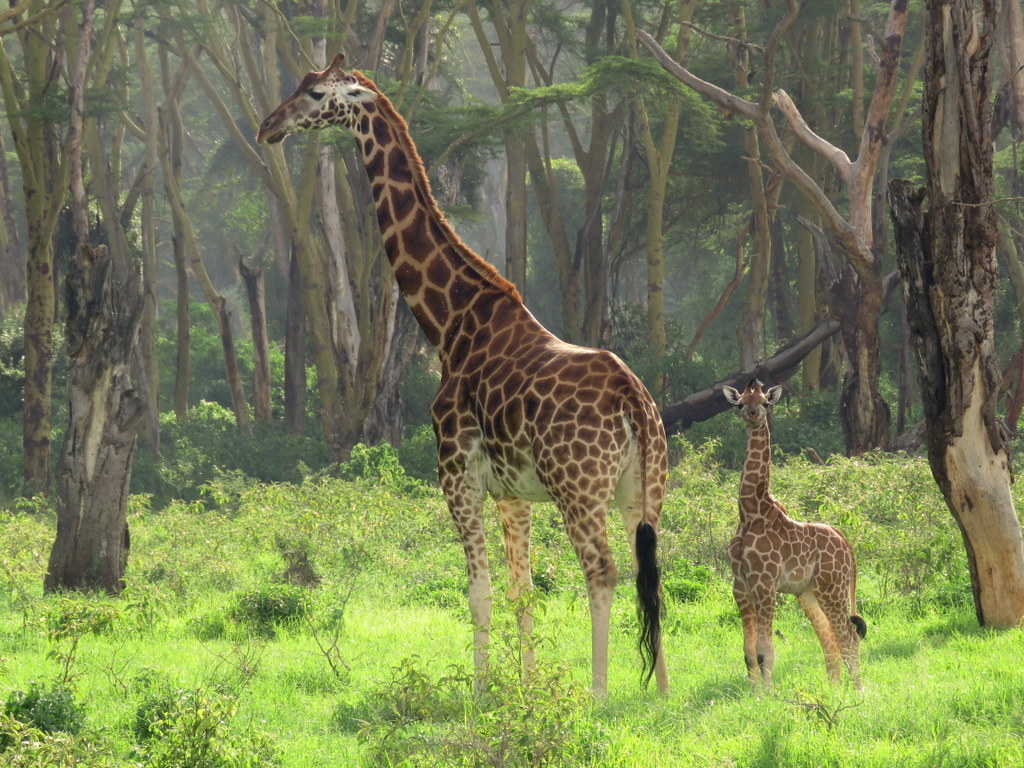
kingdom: Animalia
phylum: Chordata
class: Mammalia
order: Artiodactyla
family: Giraffidae
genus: Giraffa
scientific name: Giraffa camelopardalis
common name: Giraffe
